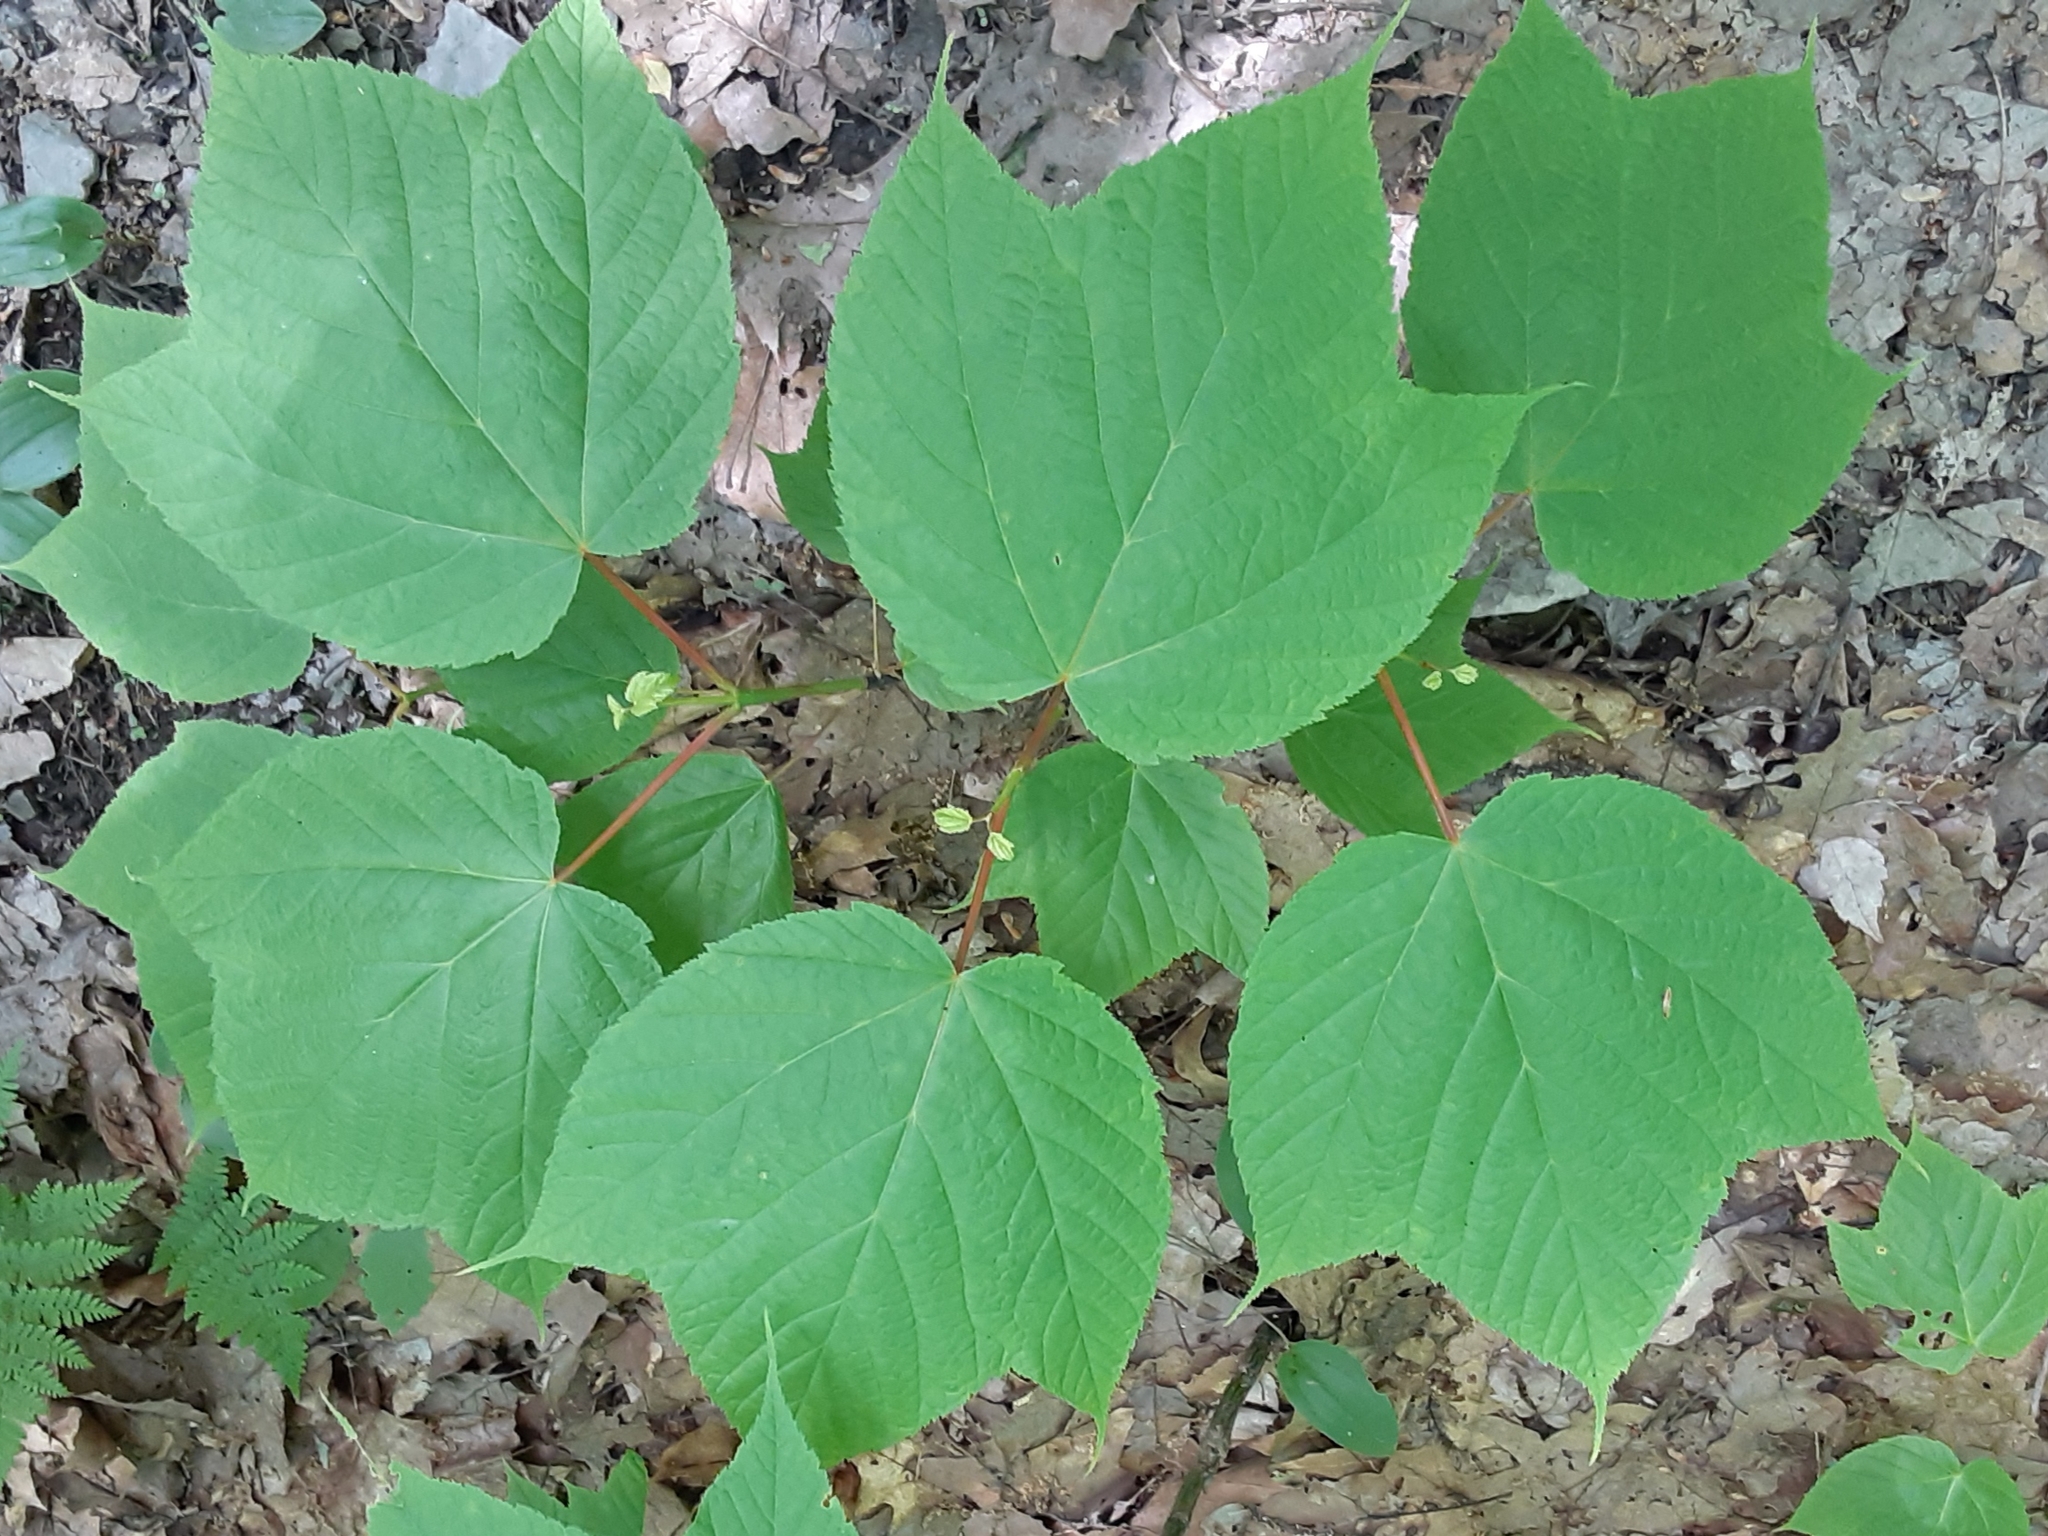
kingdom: Plantae
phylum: Tracheophyta
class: Magnoliopsida
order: Sapindales
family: Sapindaceae
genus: Acer
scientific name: Acer pensylvanicum
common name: Moosewood
